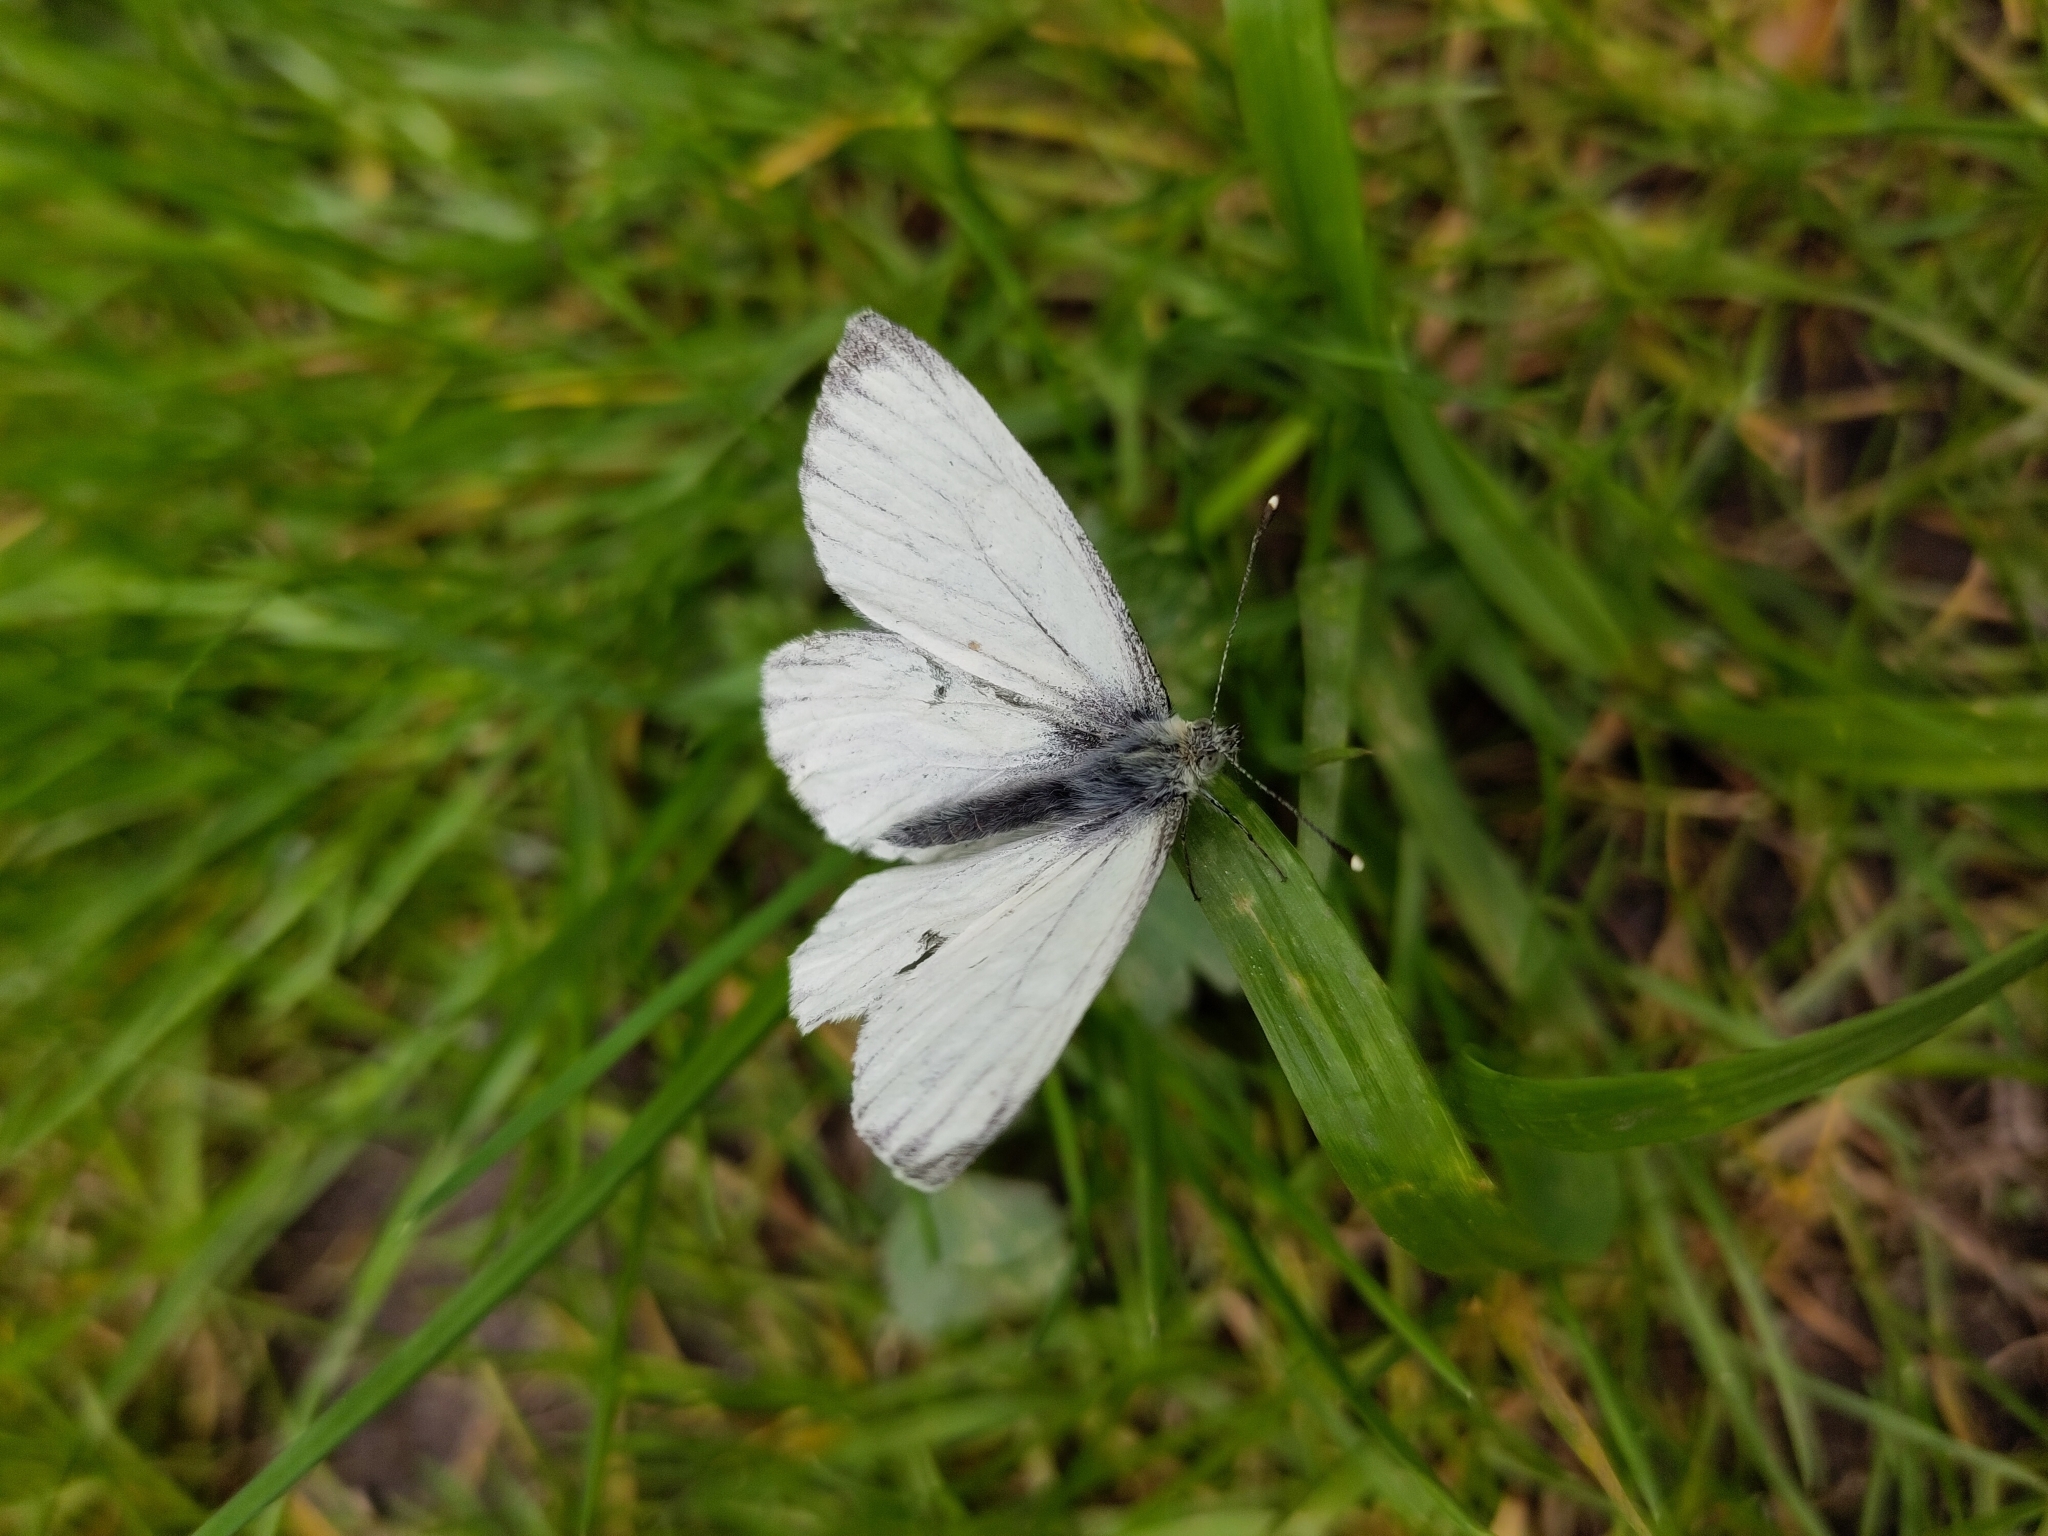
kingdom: Animalia
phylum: Arthropoda
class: Insecta
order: Lepidoptera
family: Pieridae
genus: Pieris
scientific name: Pieris napi
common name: Green-veined white
